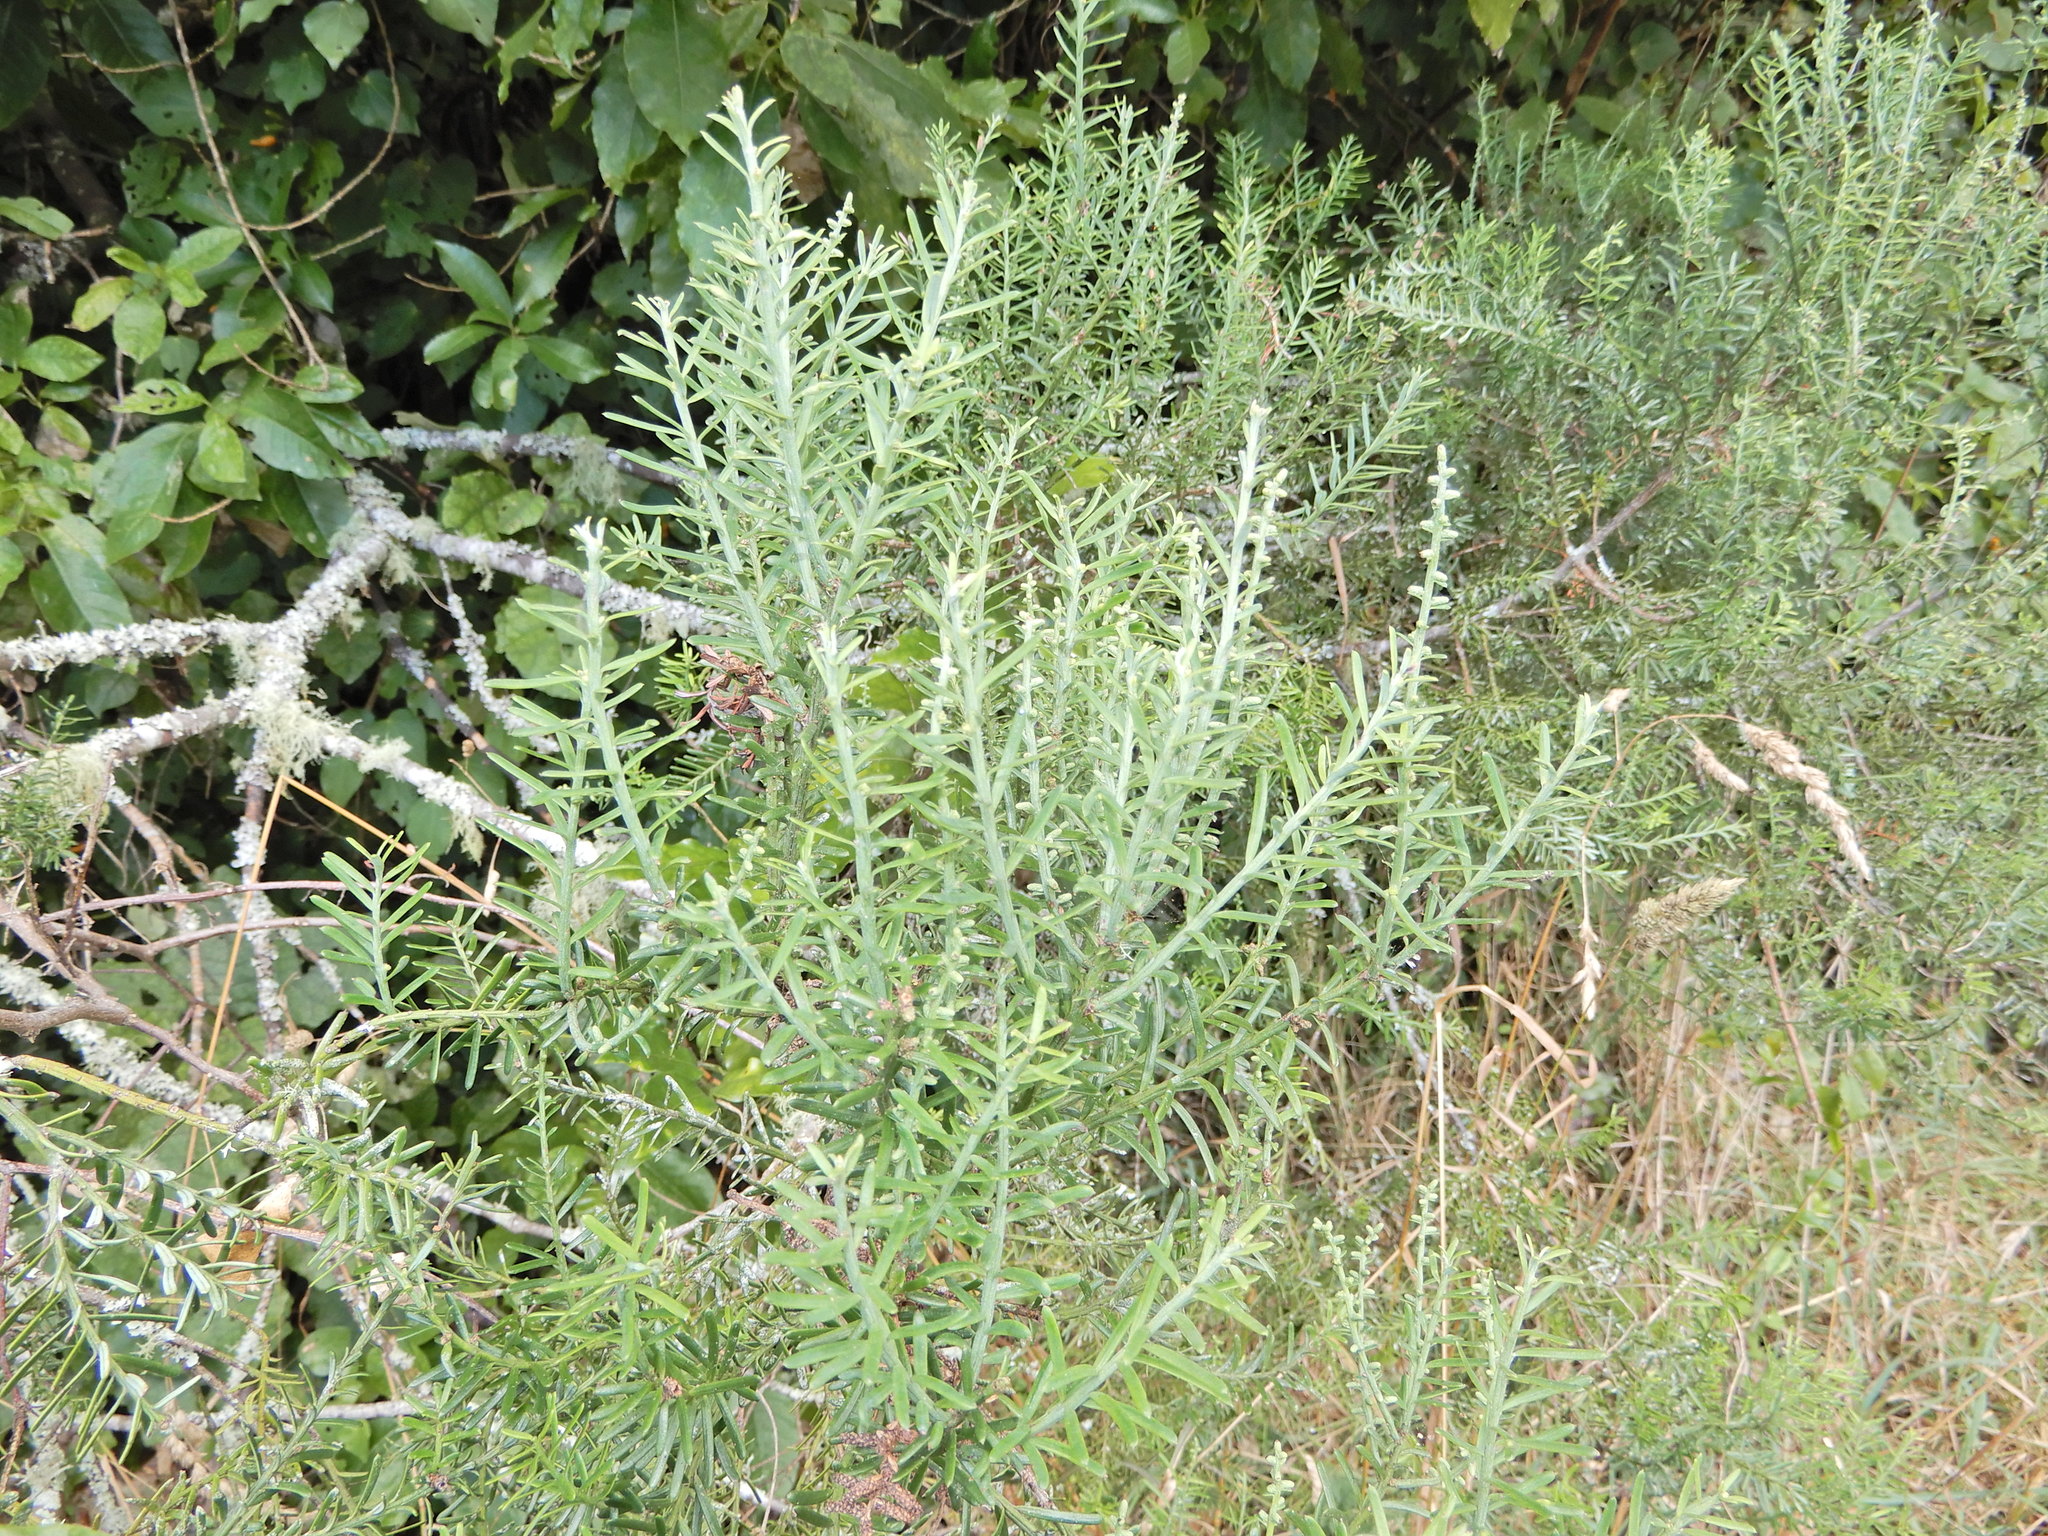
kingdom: Plantae
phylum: Tracheophyta
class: Pinopsida
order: Pinales
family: Podocarpaceae
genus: Prumnopitys
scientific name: Prumnopitys taxifolia
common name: Matai
